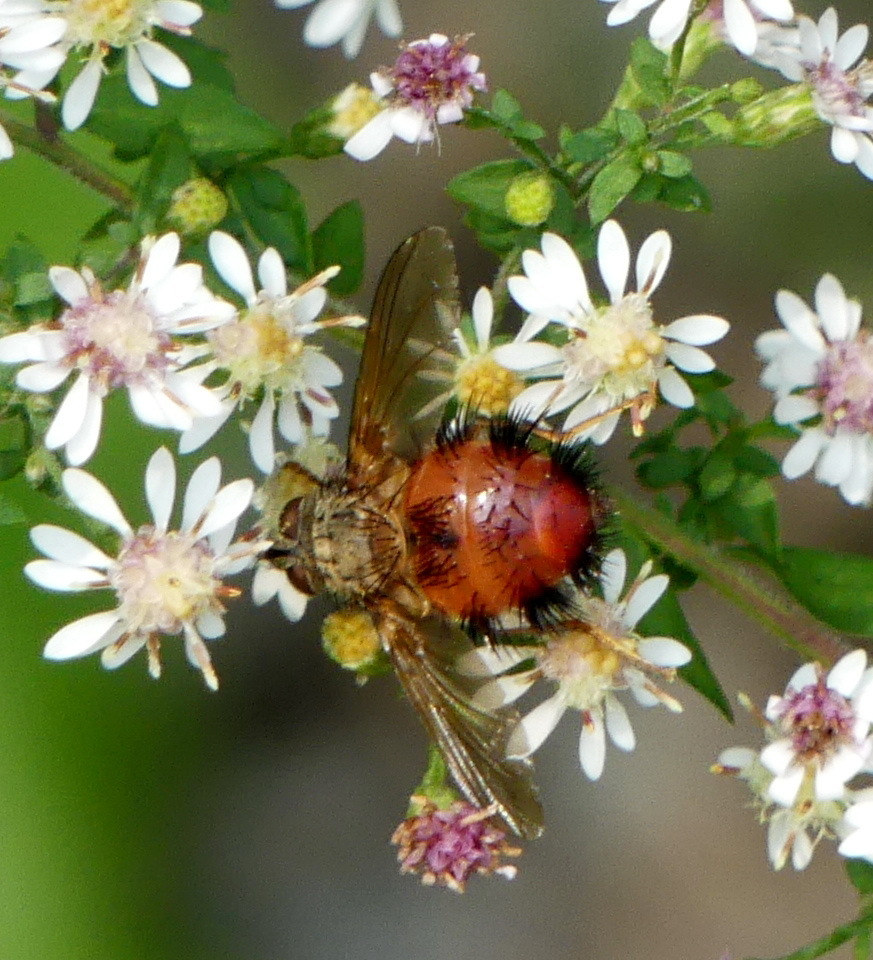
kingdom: Animalia
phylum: Arthropoda
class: Insecta
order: Diptera
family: Tachinidae
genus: Hystricia
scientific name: Hystricia abrupta
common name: Tomato bristle fly
